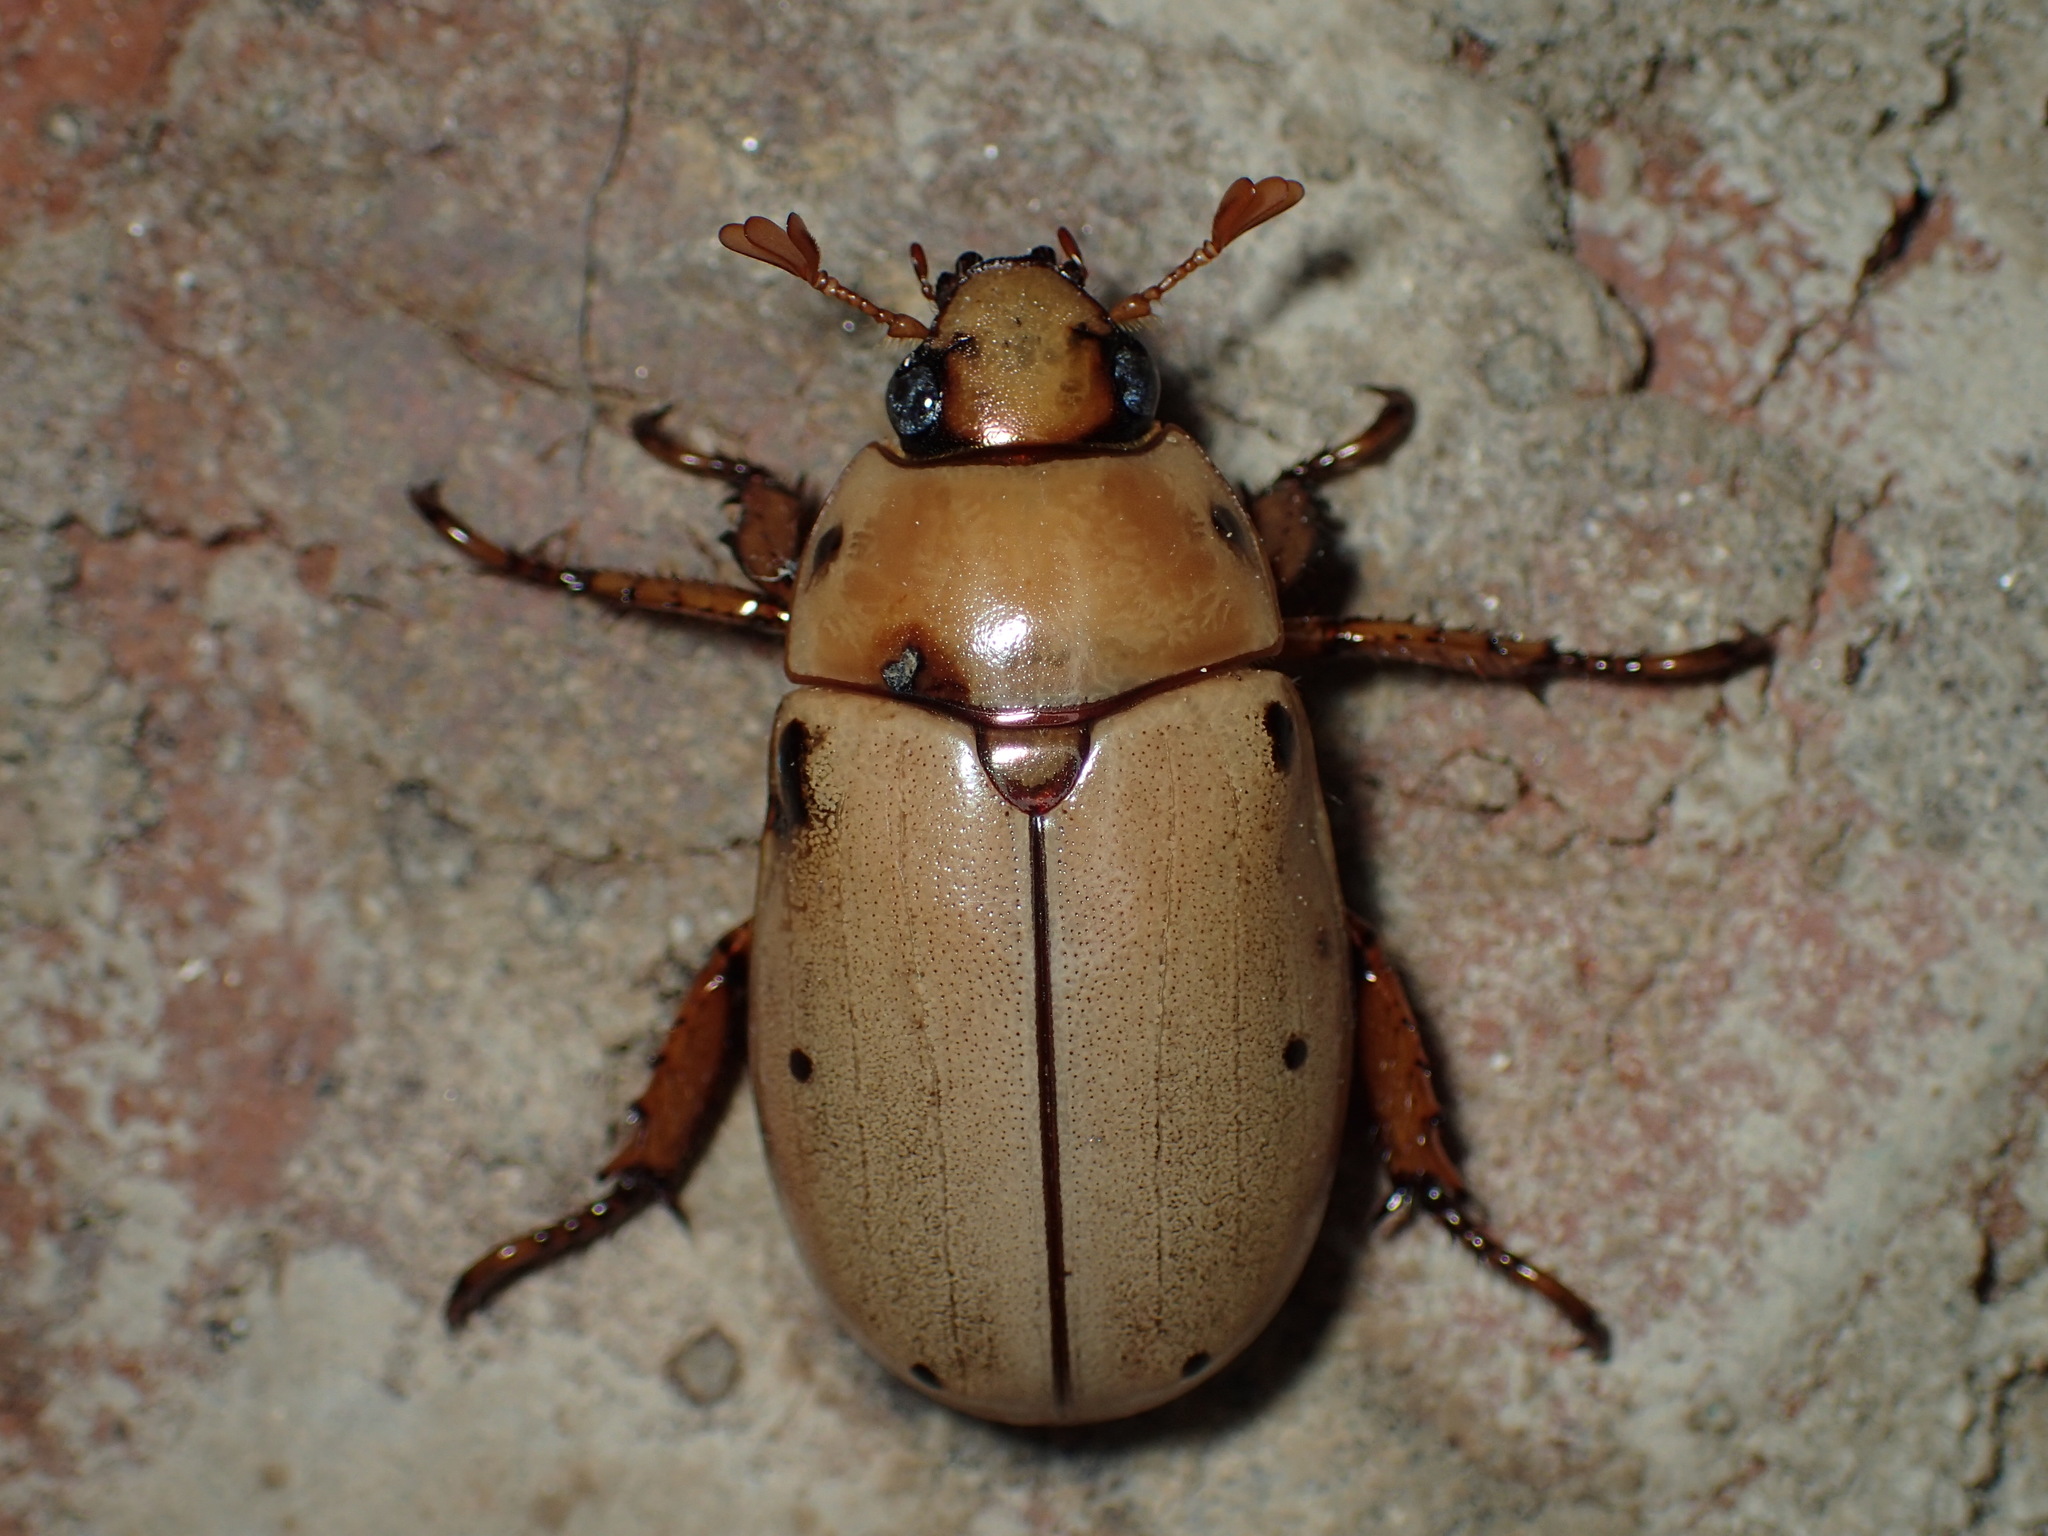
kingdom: Animalia
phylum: Arthropoda
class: Insecta
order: Coleoptera
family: Scarabaeidae
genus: Pelidnota
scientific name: Pelidnota punctata
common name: Grapevine beetle
